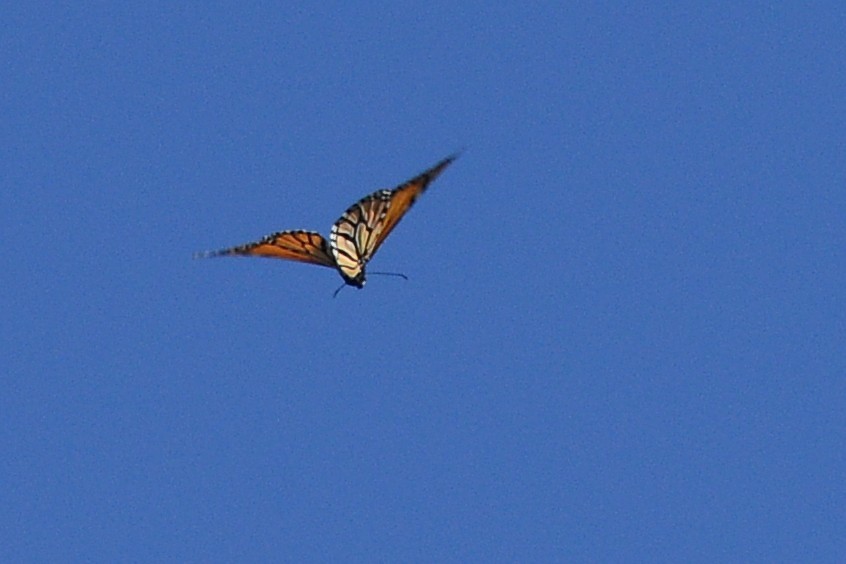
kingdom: Animalia
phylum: Arthropoda
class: Insecta
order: Lepidoptera
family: Nymphalidae
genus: Danaus
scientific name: Danaus plexippus
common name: Monarch
